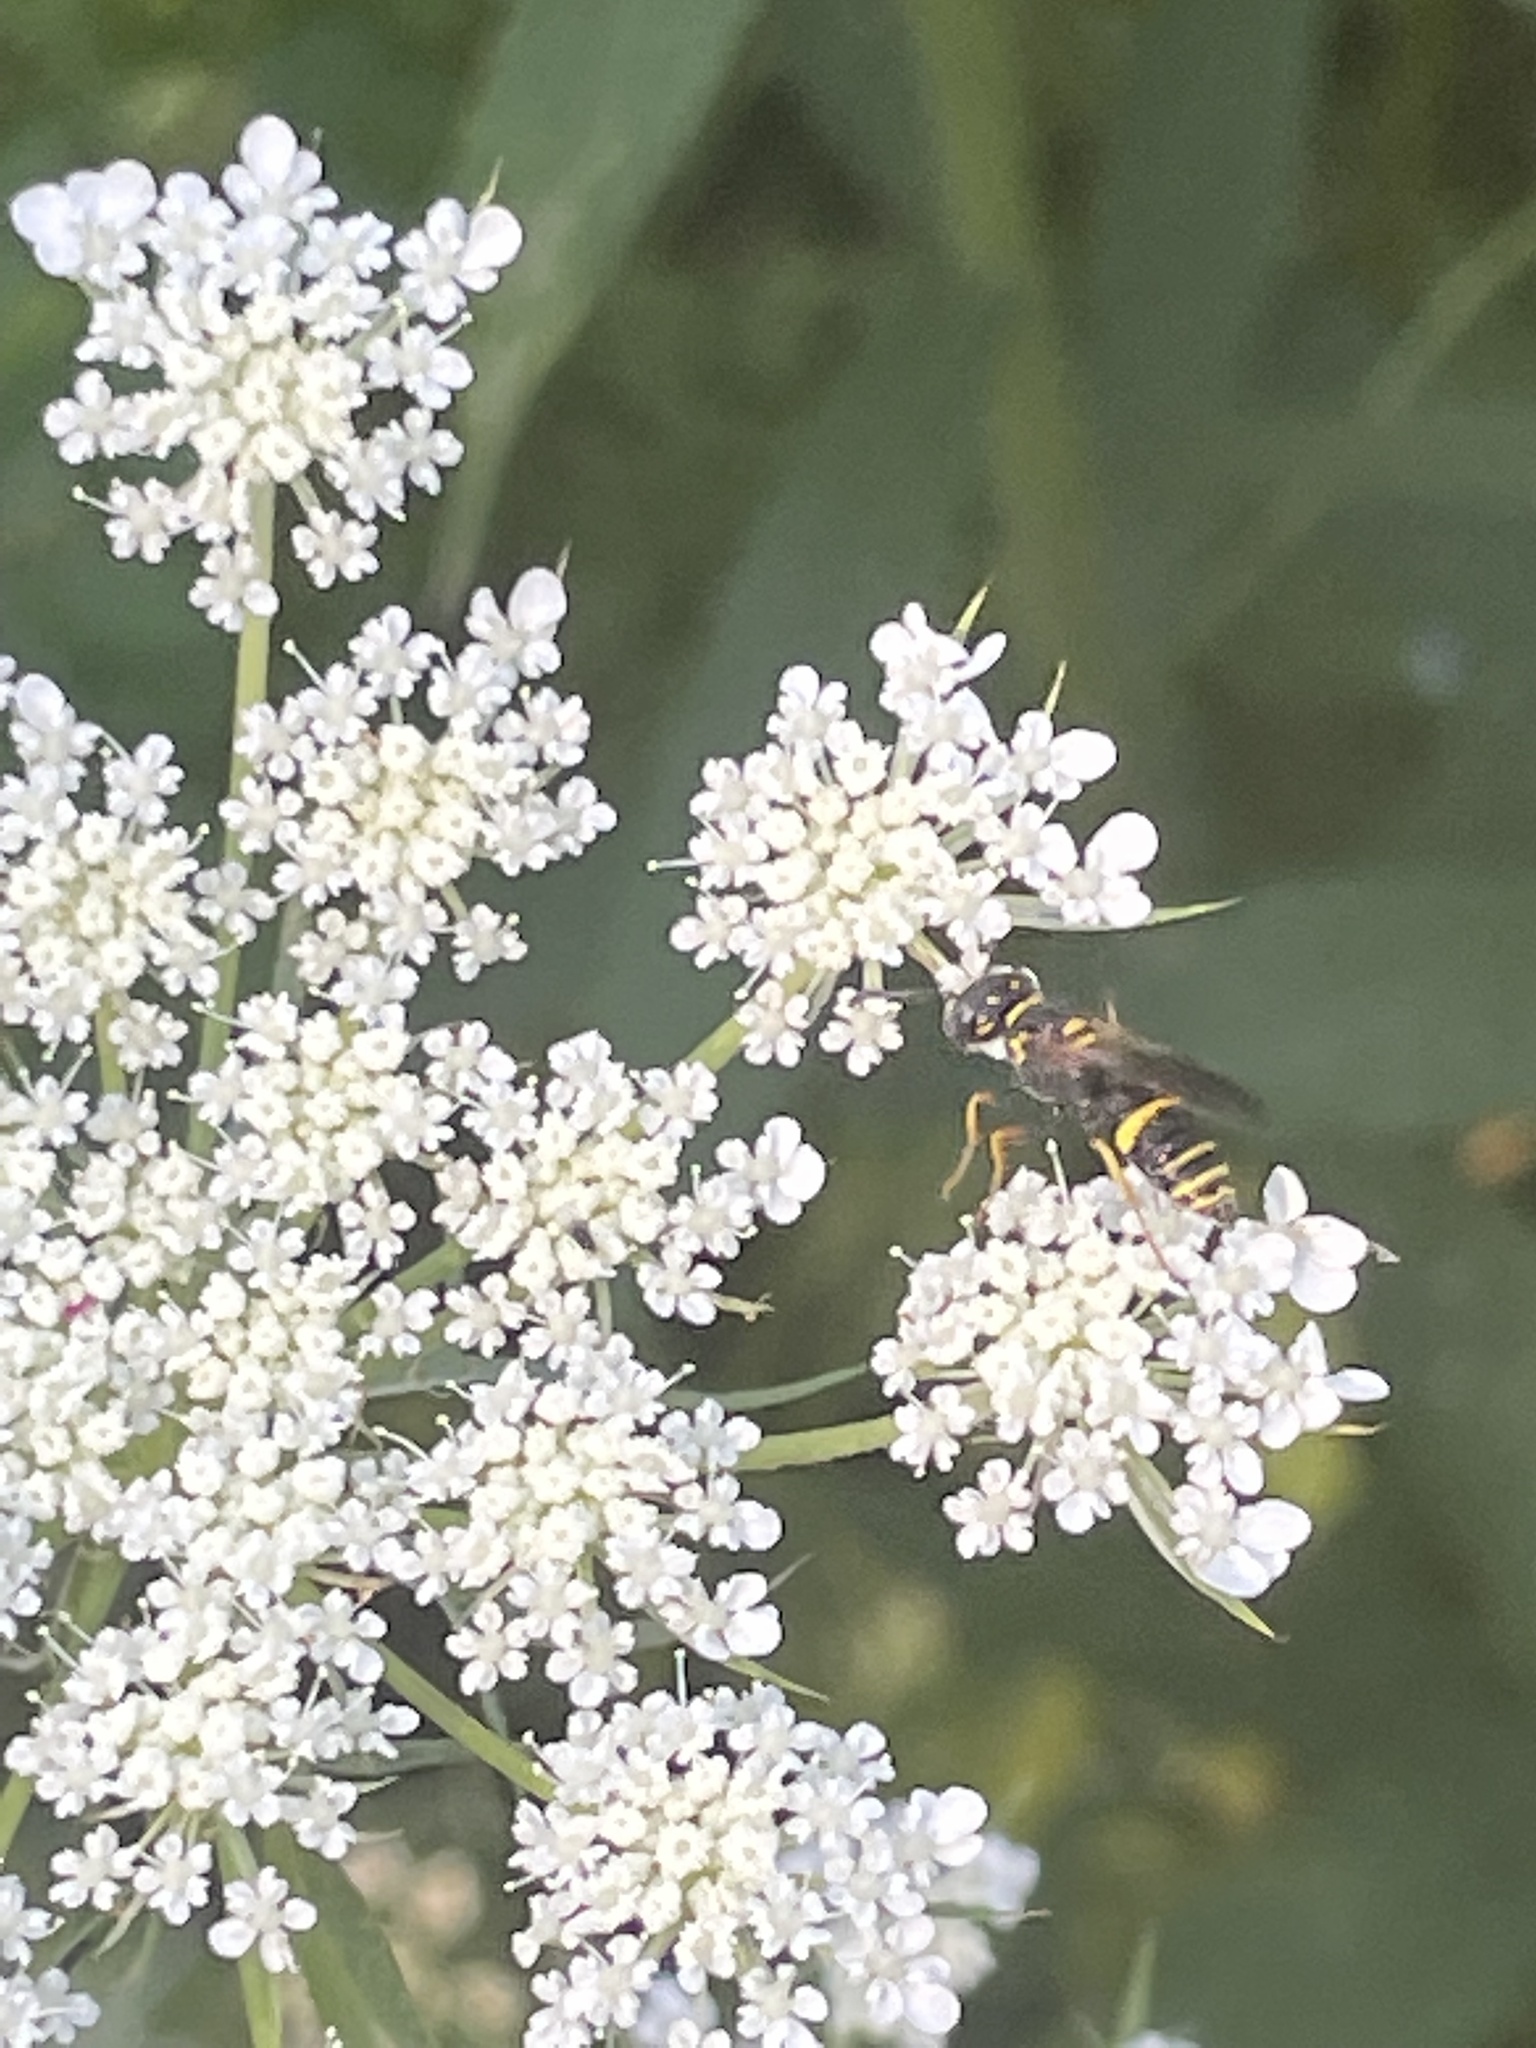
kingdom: Animalia
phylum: Arthropoda
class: Insecta
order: Hymenoptera
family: Crabronidae
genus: Philanthus
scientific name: Philanthus gibbosus
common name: Humped beewolf
